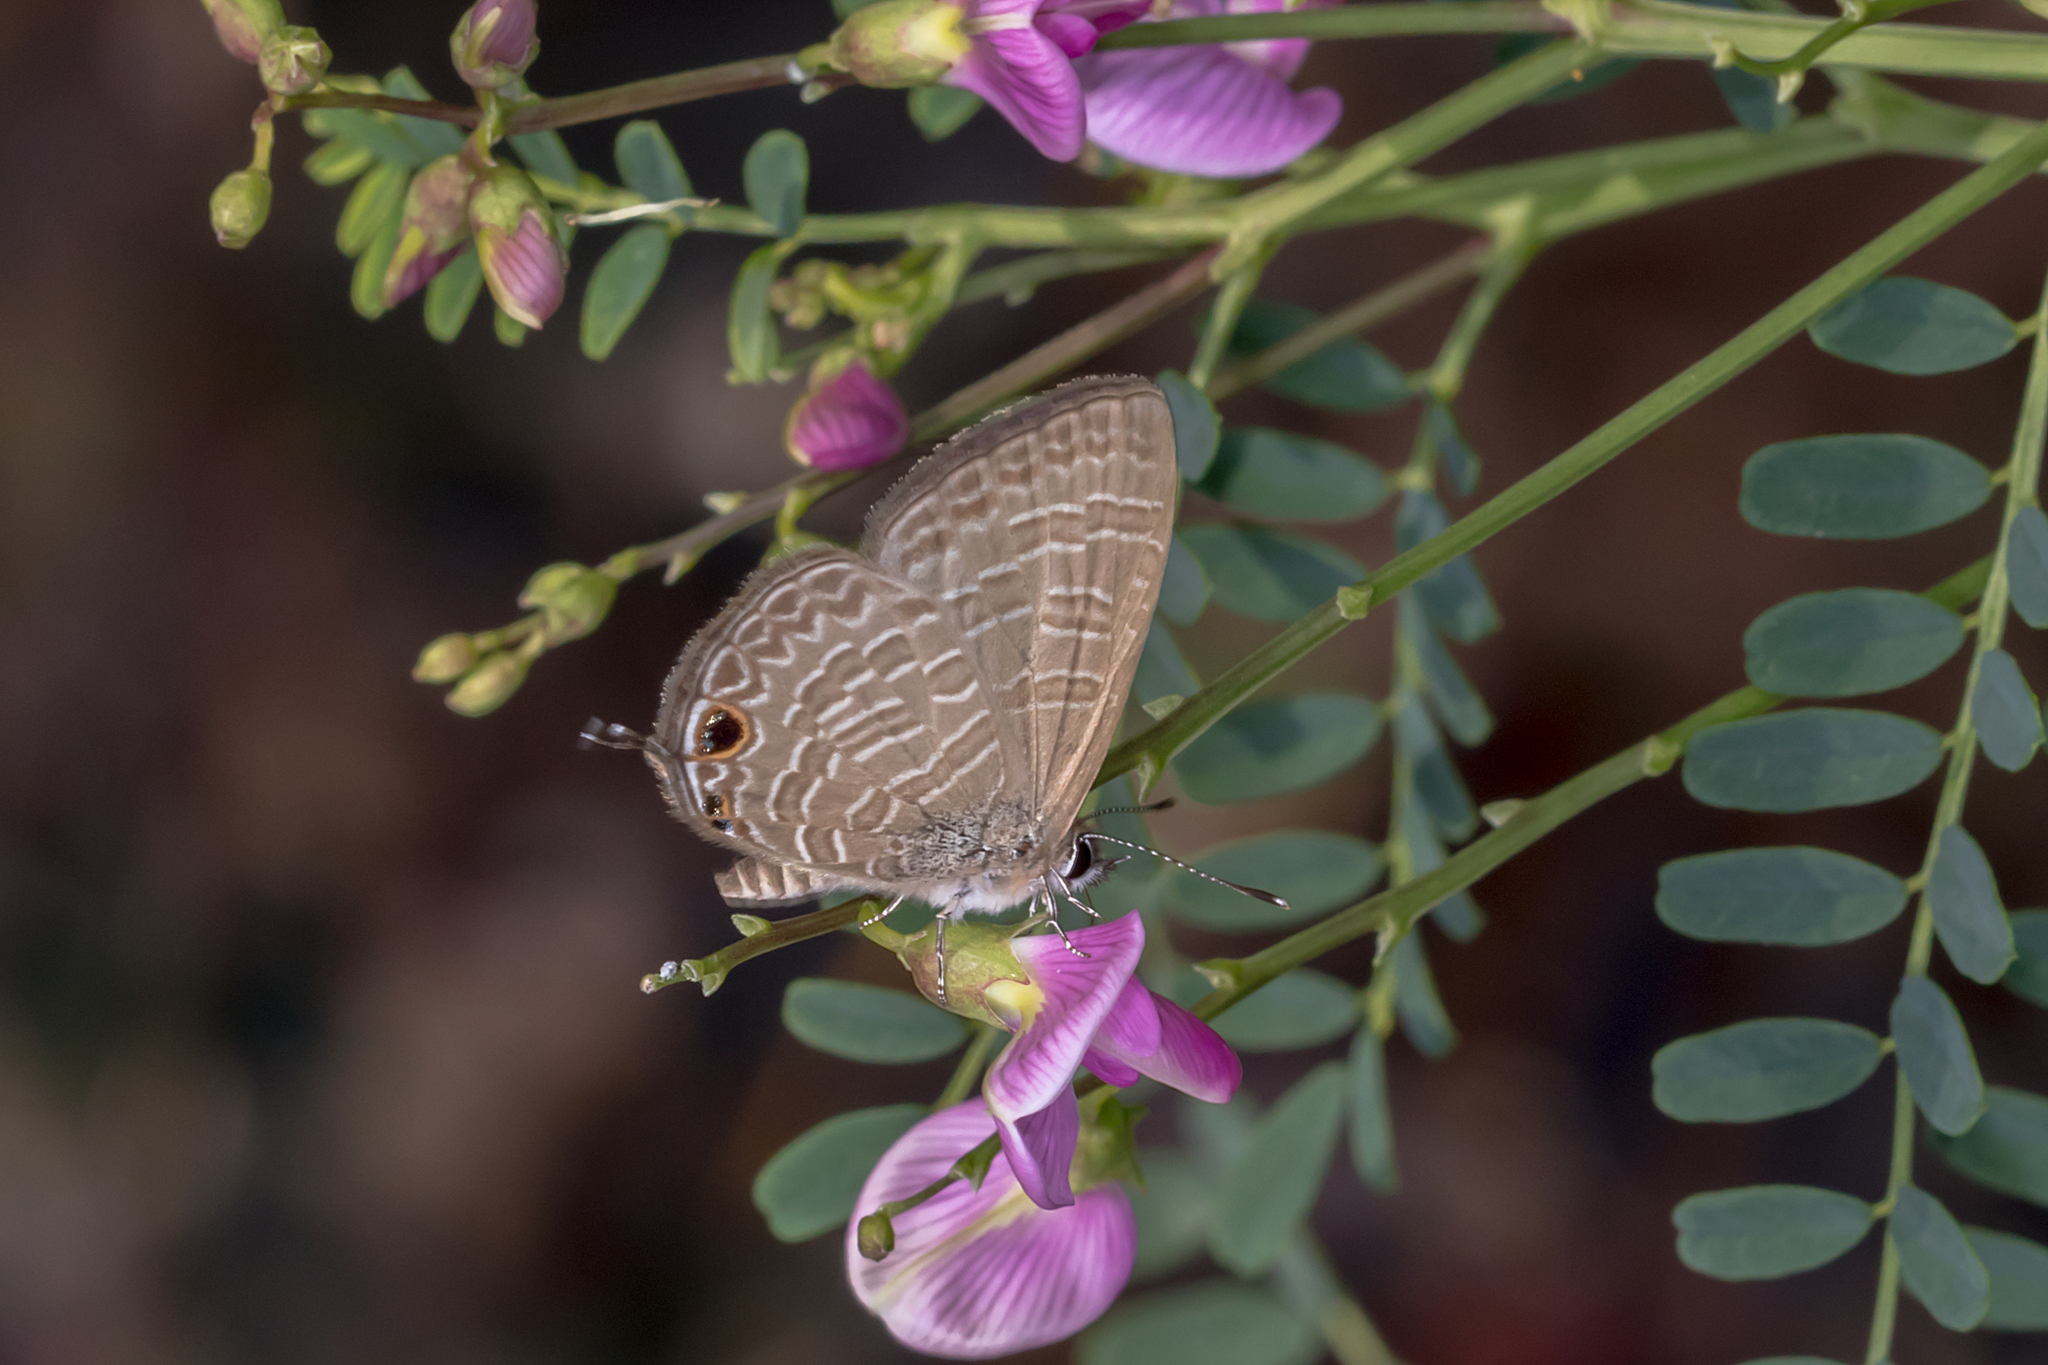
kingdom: Animalia
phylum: Arthropoda
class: Insecta
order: Lepidoptera
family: Lycaenidae
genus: Nacaduba
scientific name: Nacaduba berenice
